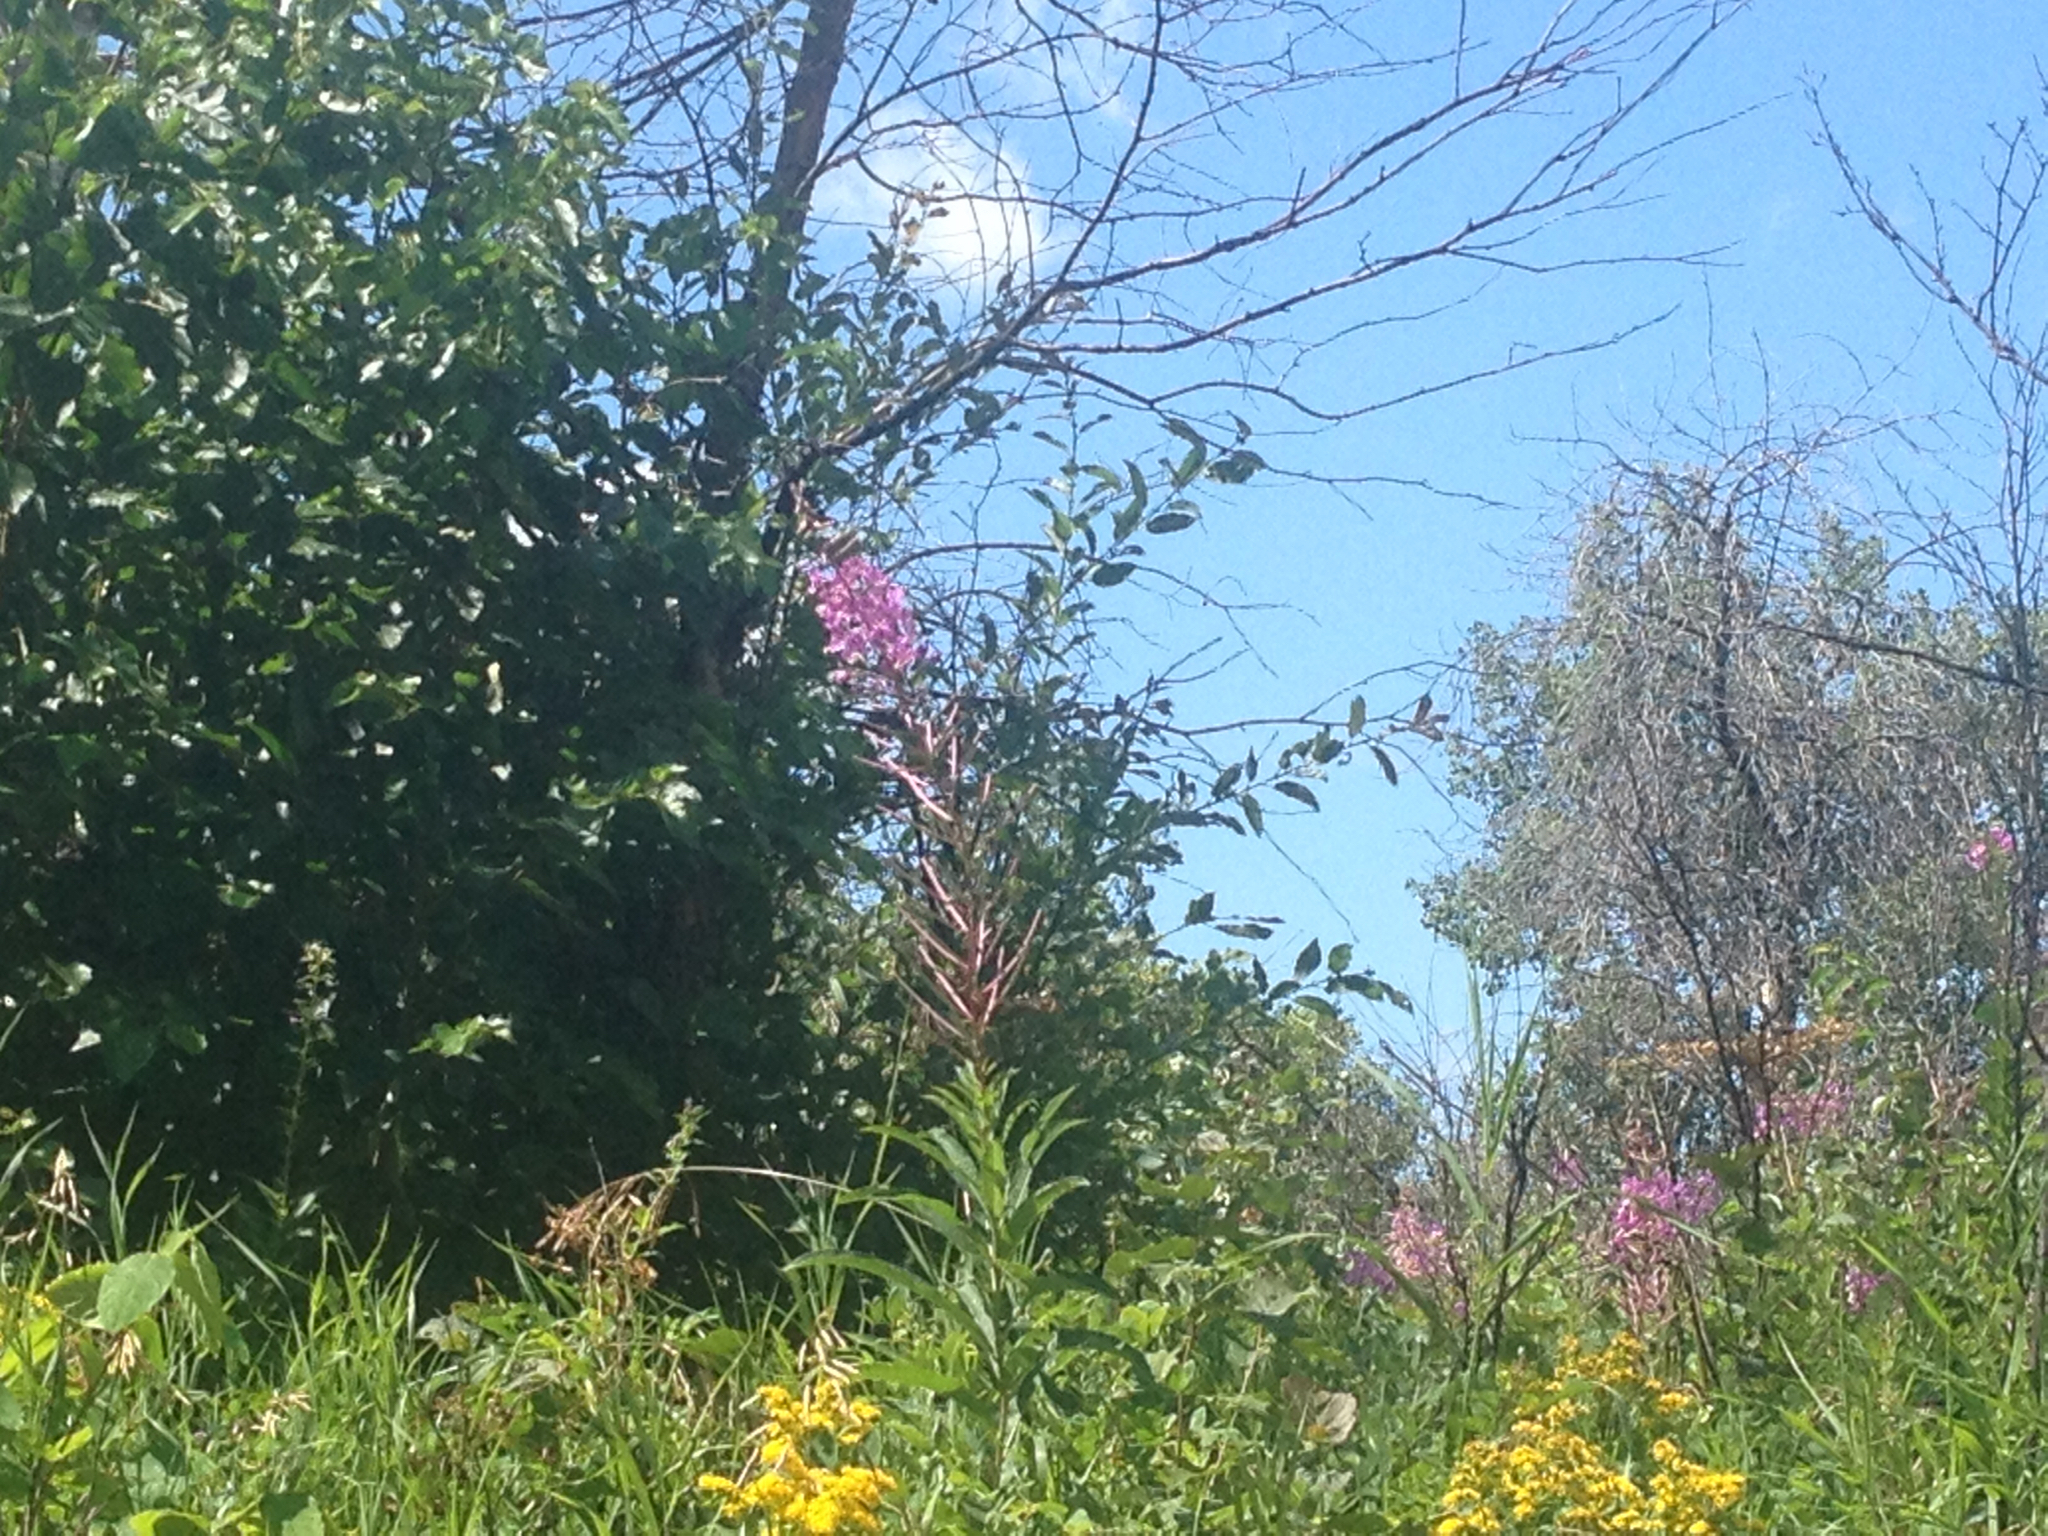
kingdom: Plantae
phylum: Tracheophyta
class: Magnoliopsida
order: Myrtales
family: Onagraceae
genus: Chamaenerion
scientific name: Chamaenerion angustifolium
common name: Fireweed
